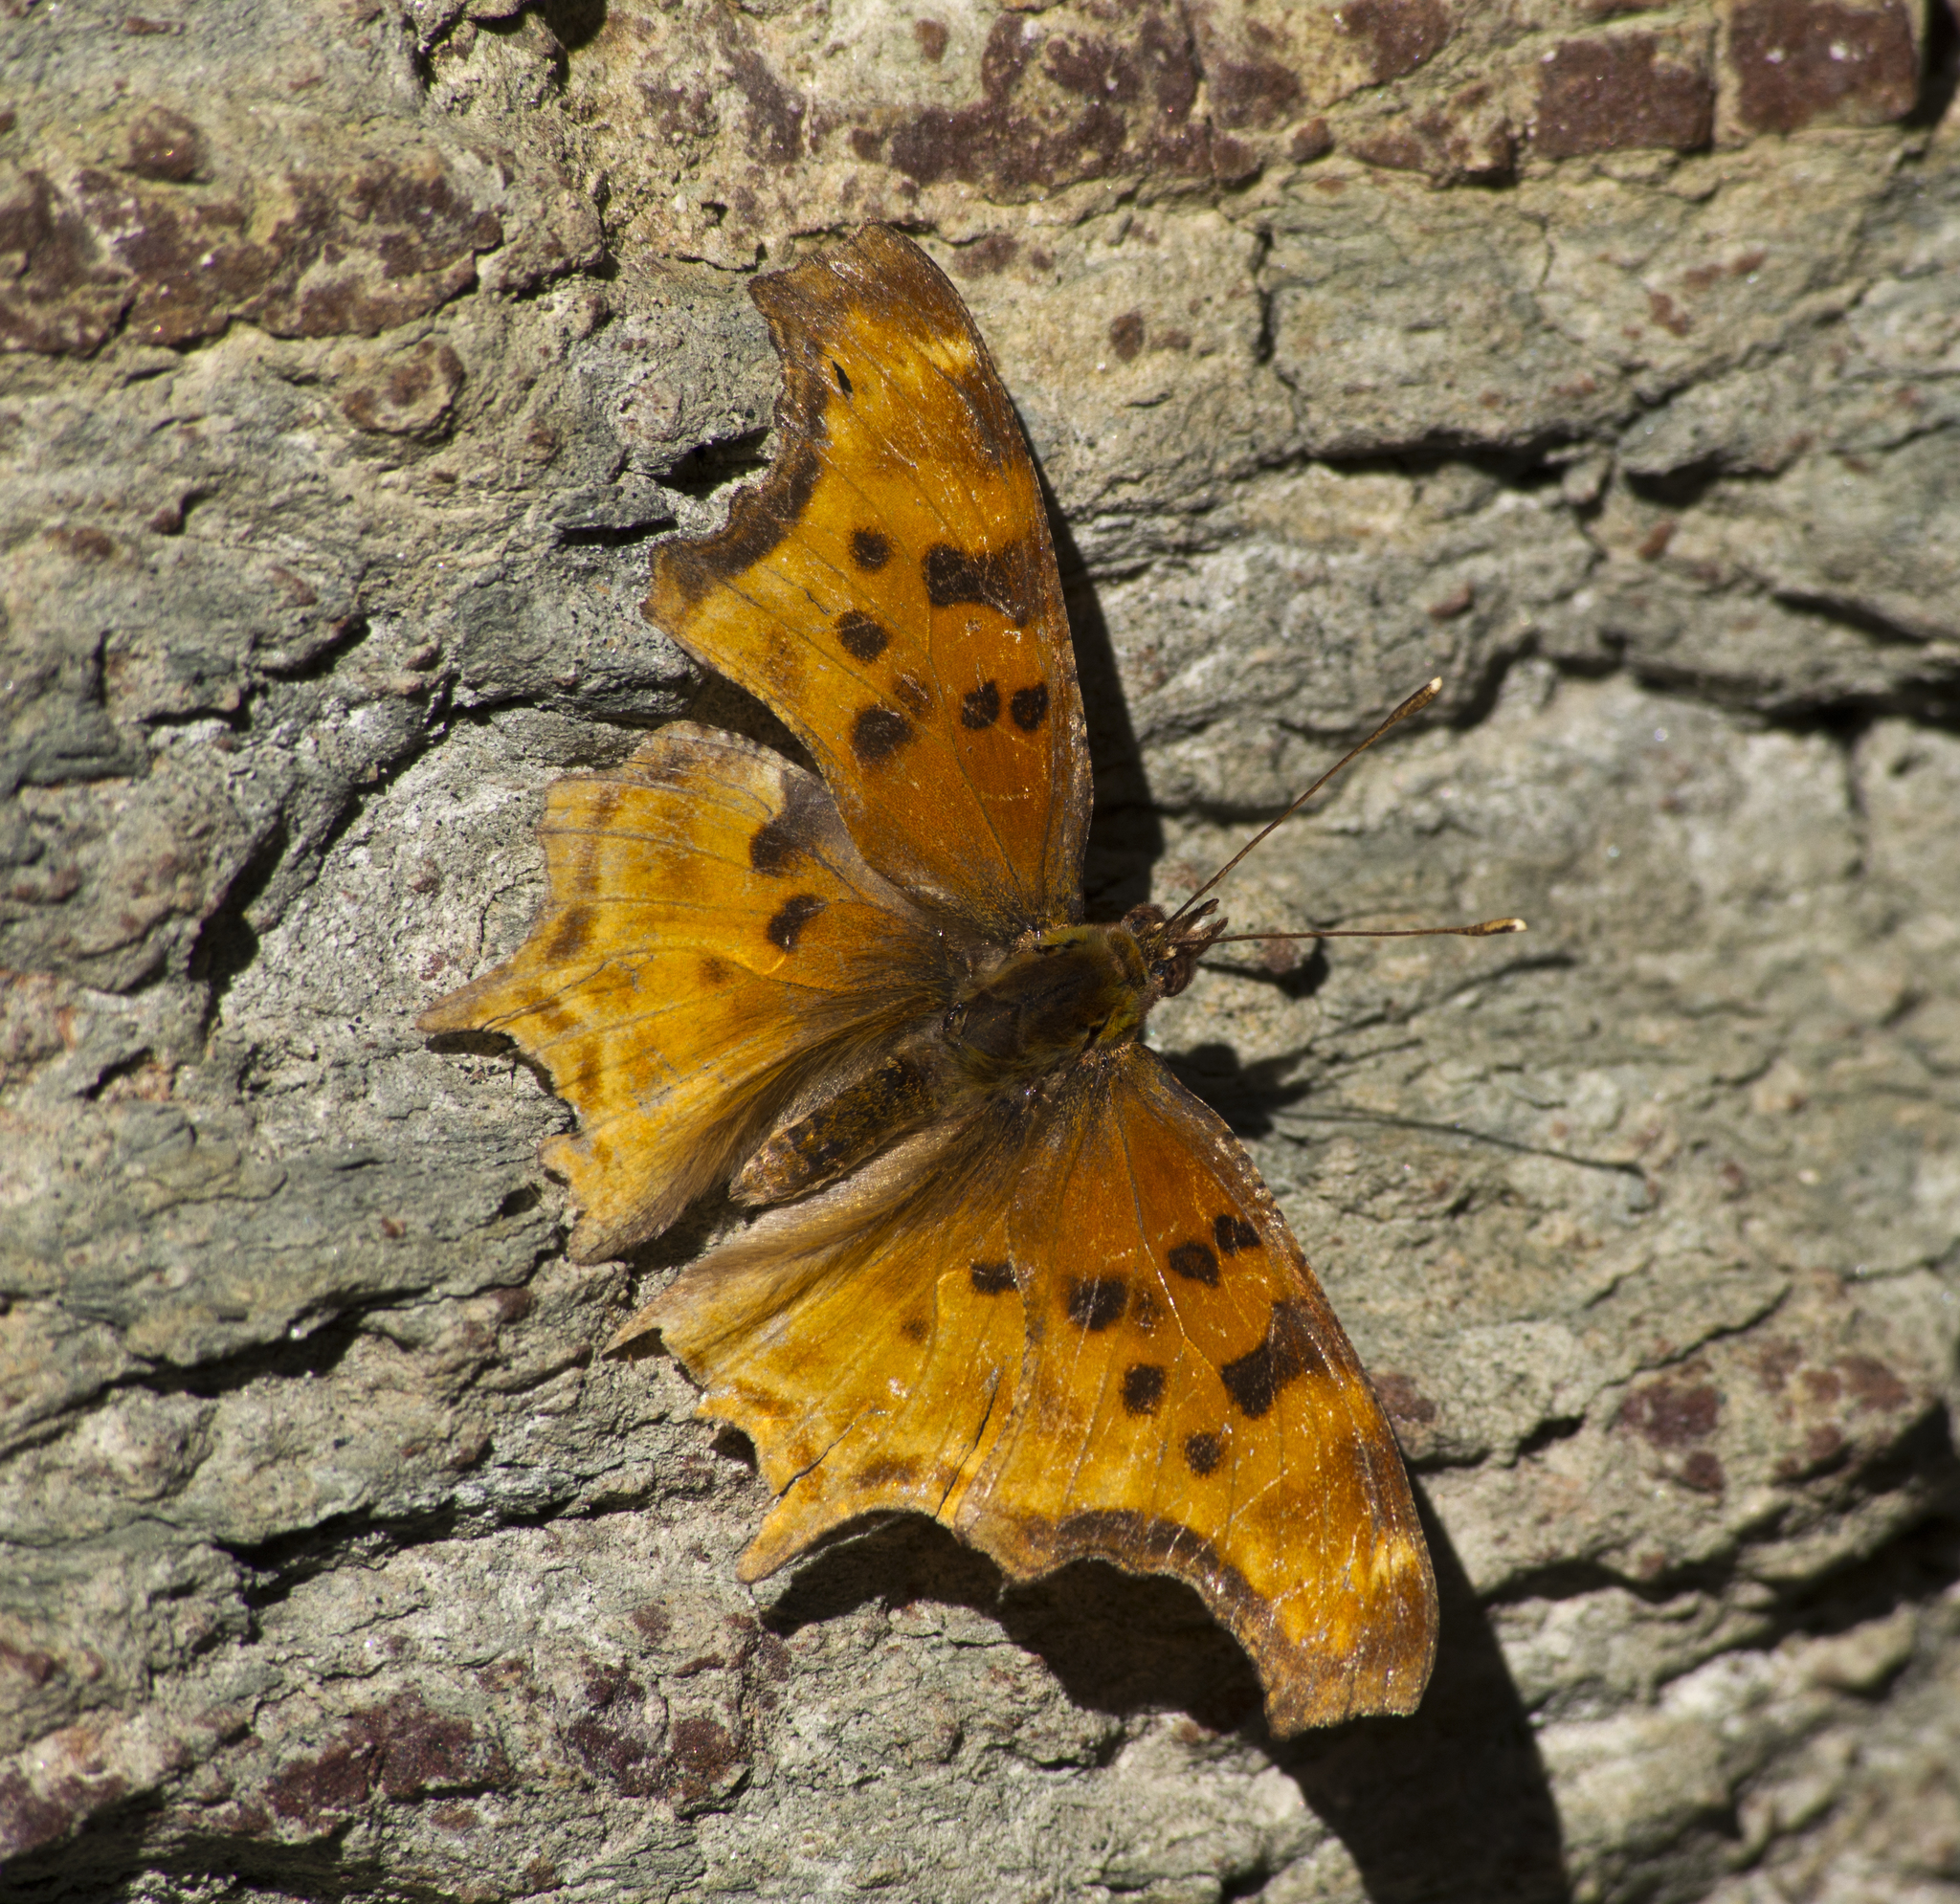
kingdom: Animalia
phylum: Arthropoda
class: Insecta
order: Lepidoptera
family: Nymphalidae
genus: Polygonia
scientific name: Polygonia satyrus
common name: Satyr angle wing
